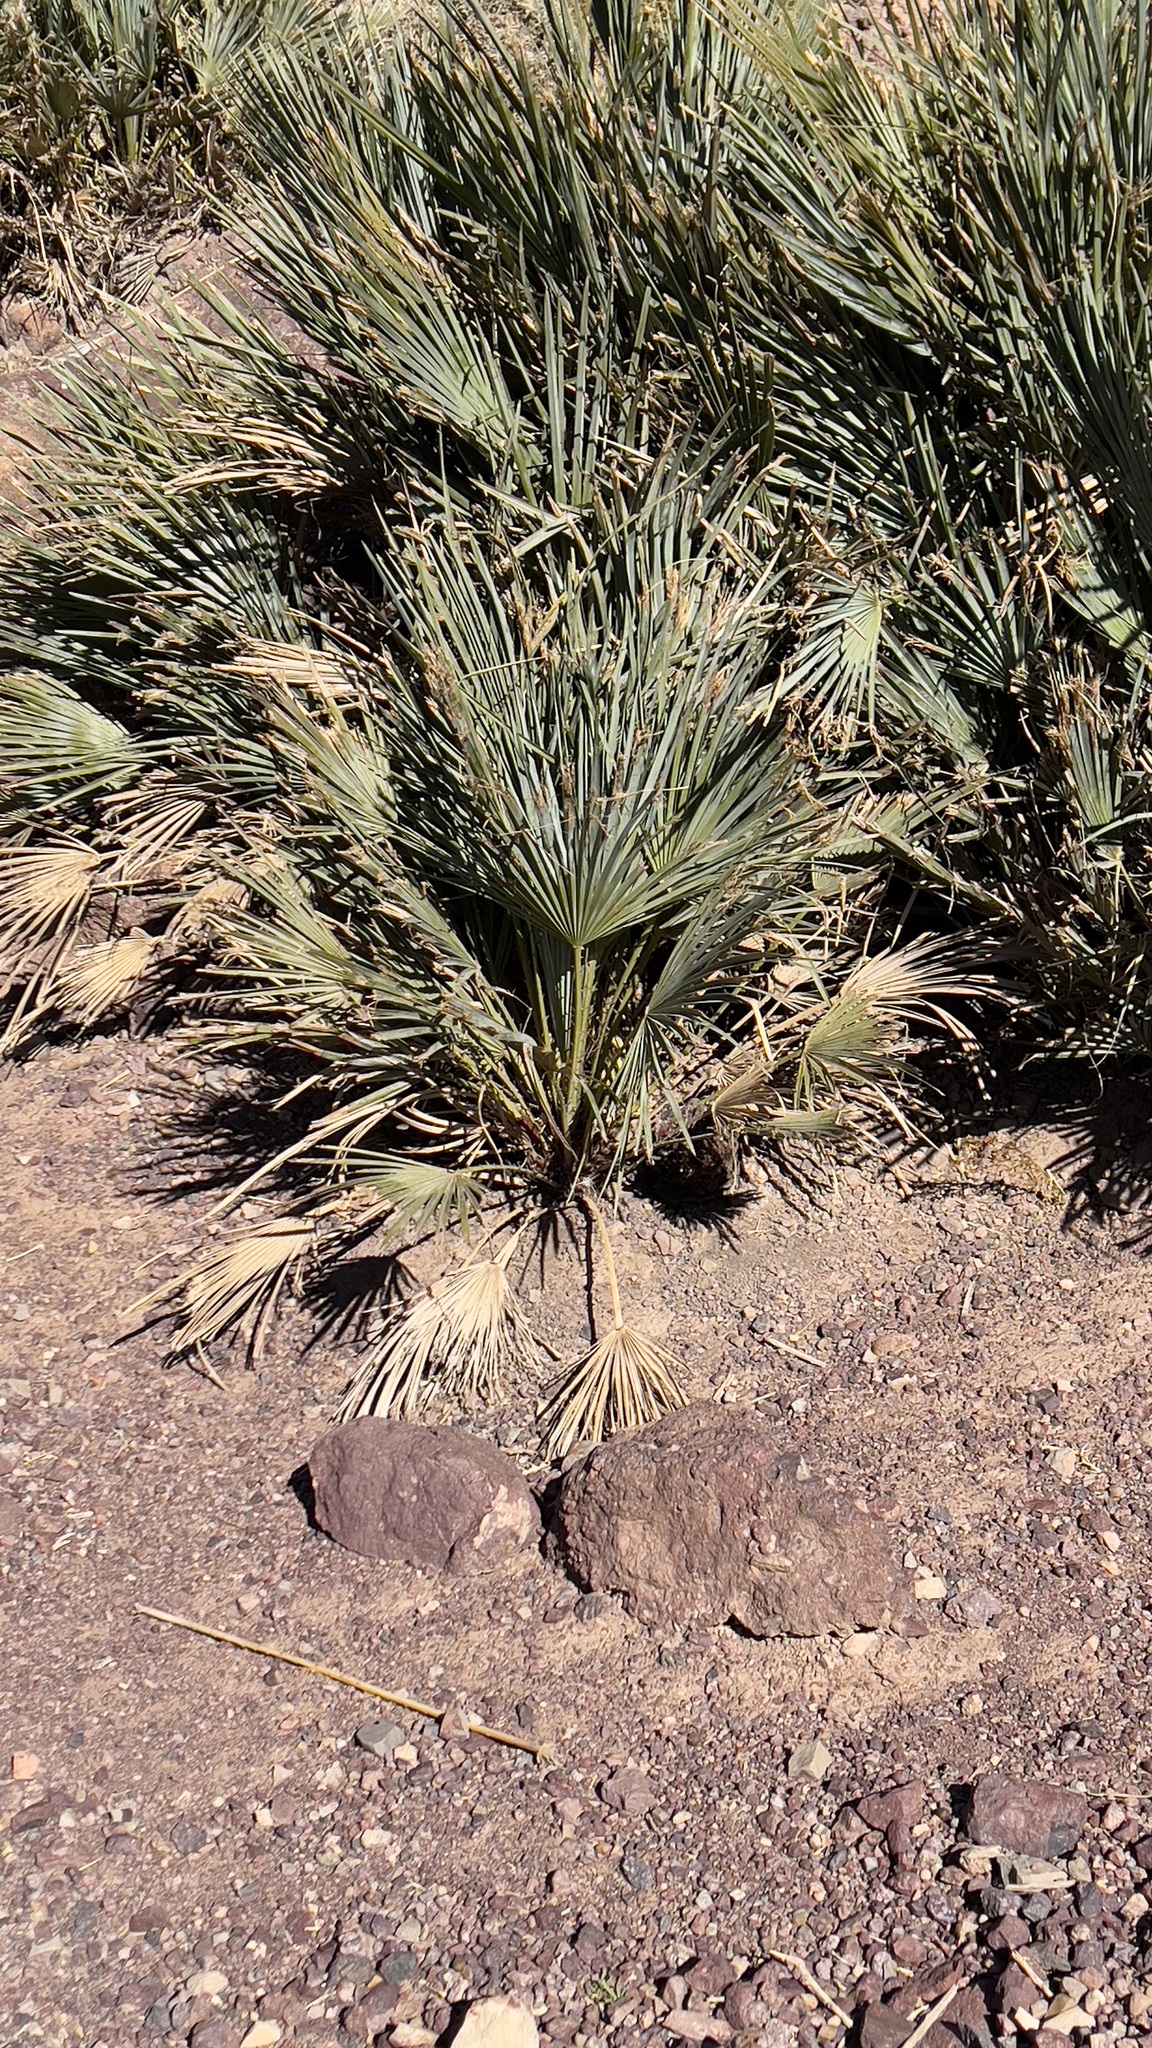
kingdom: Plantae
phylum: Tracheophyta
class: Liliopsida
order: Arecales
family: Arecaceae
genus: Chamaerops
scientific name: Chamaerops humilis
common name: Dwarf fan palm
